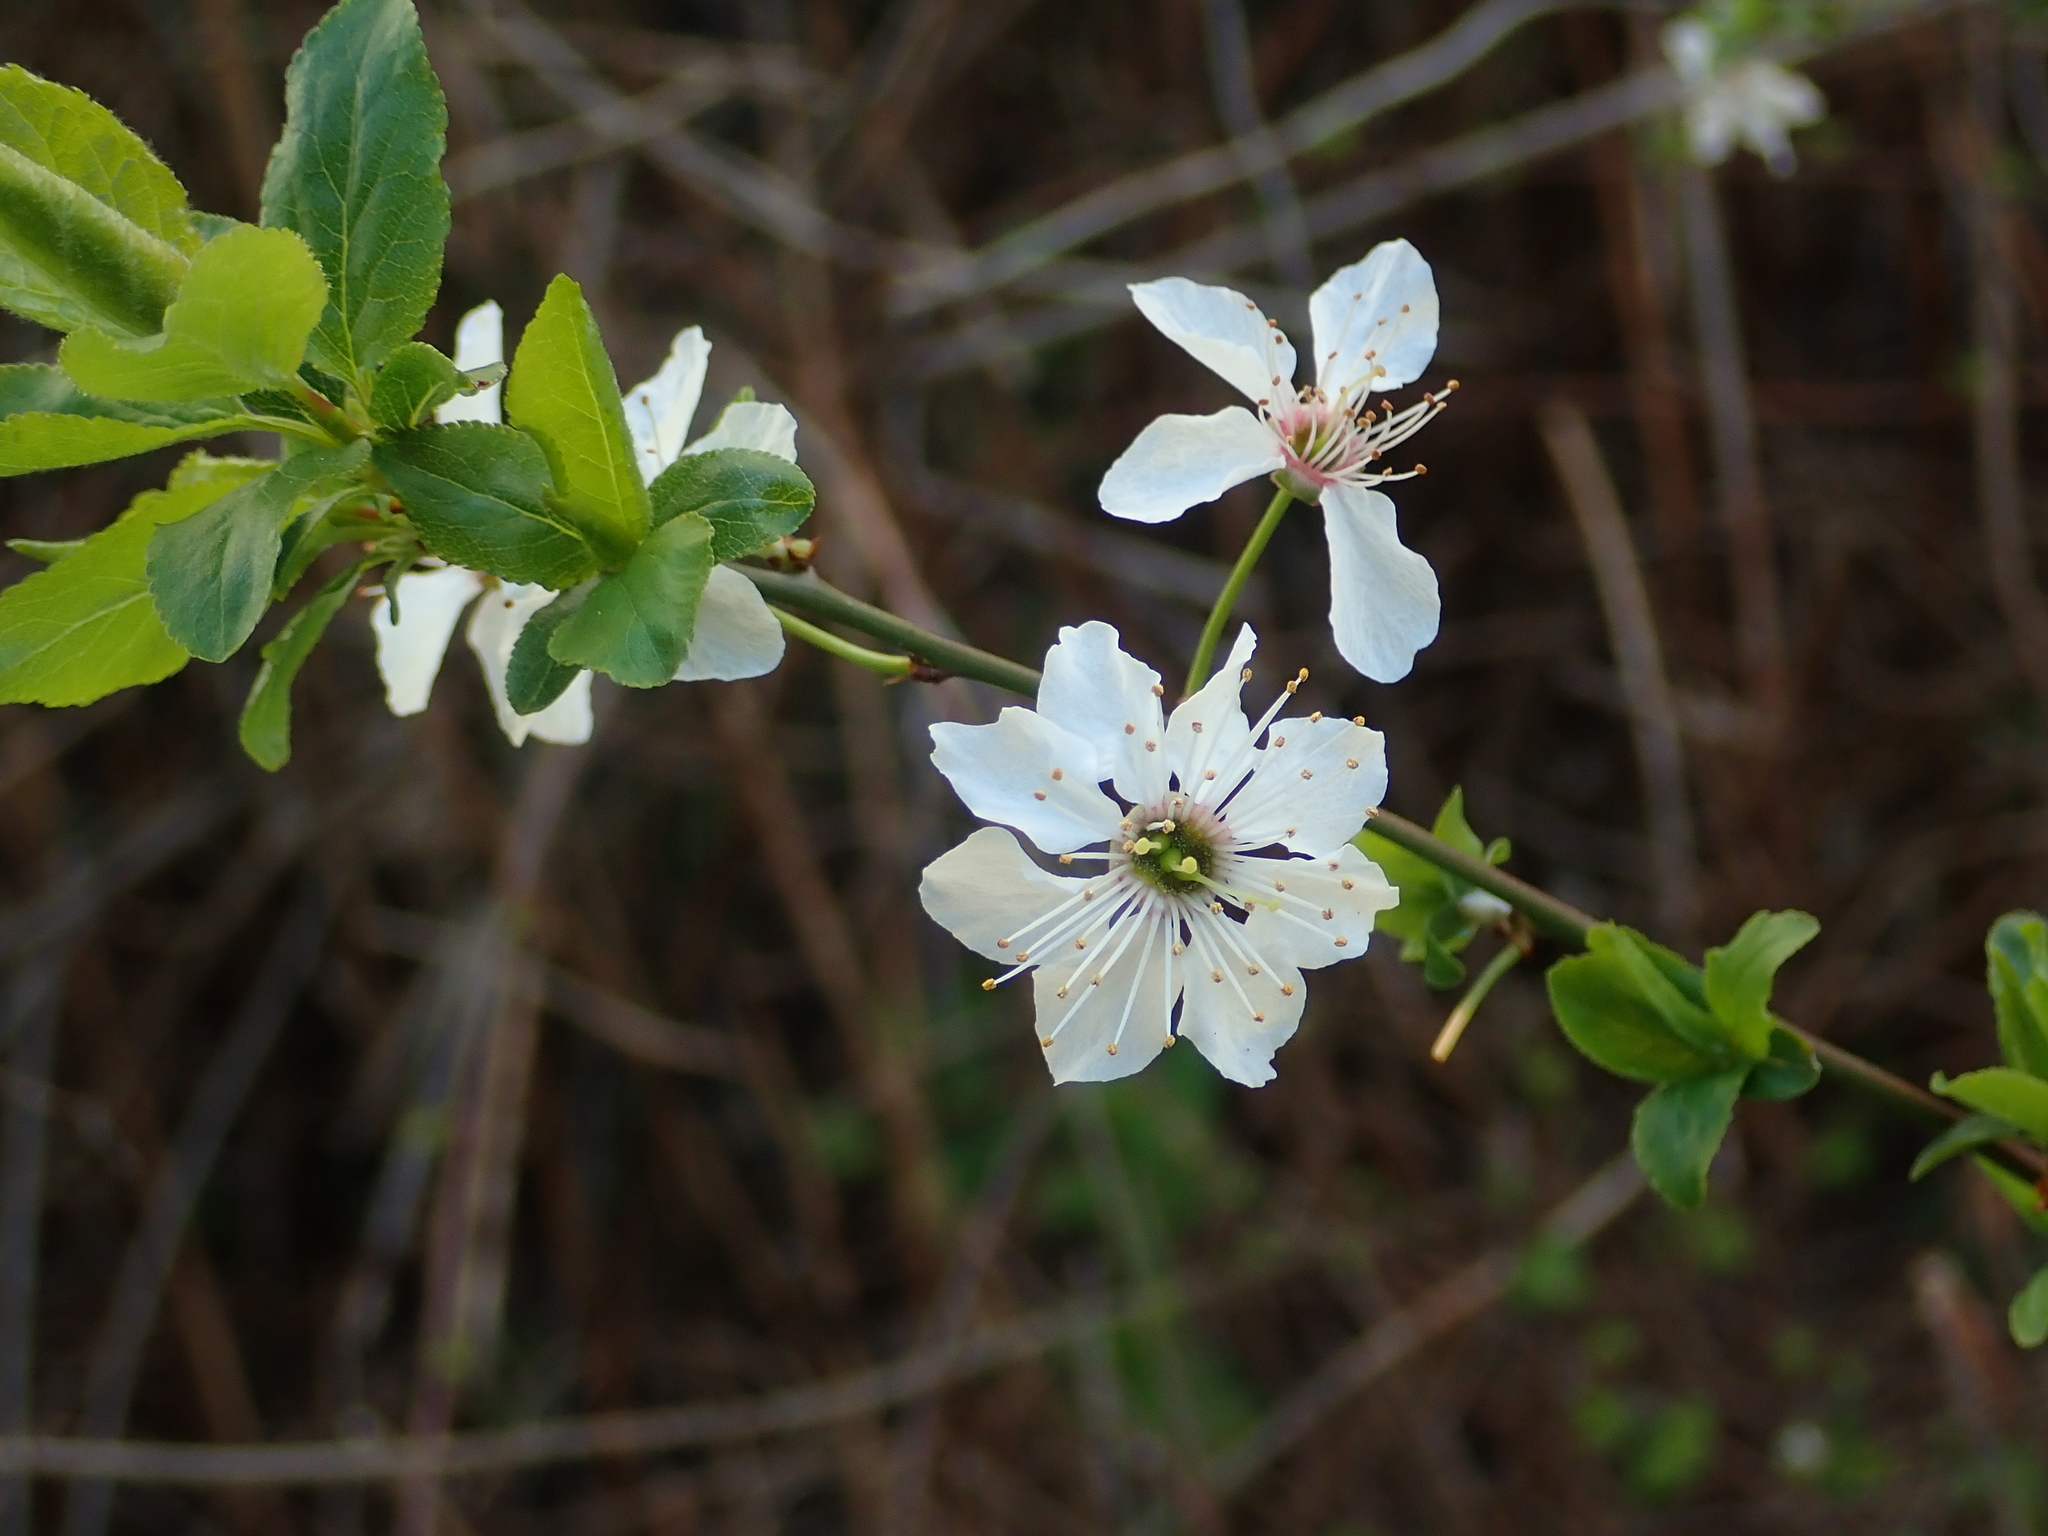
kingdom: Plantae
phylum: Tracheophyta
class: Magnoliopsida
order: Rosales
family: Rosaceae
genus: Prunus
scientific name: Prunus cerasifera
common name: Cherry plum
